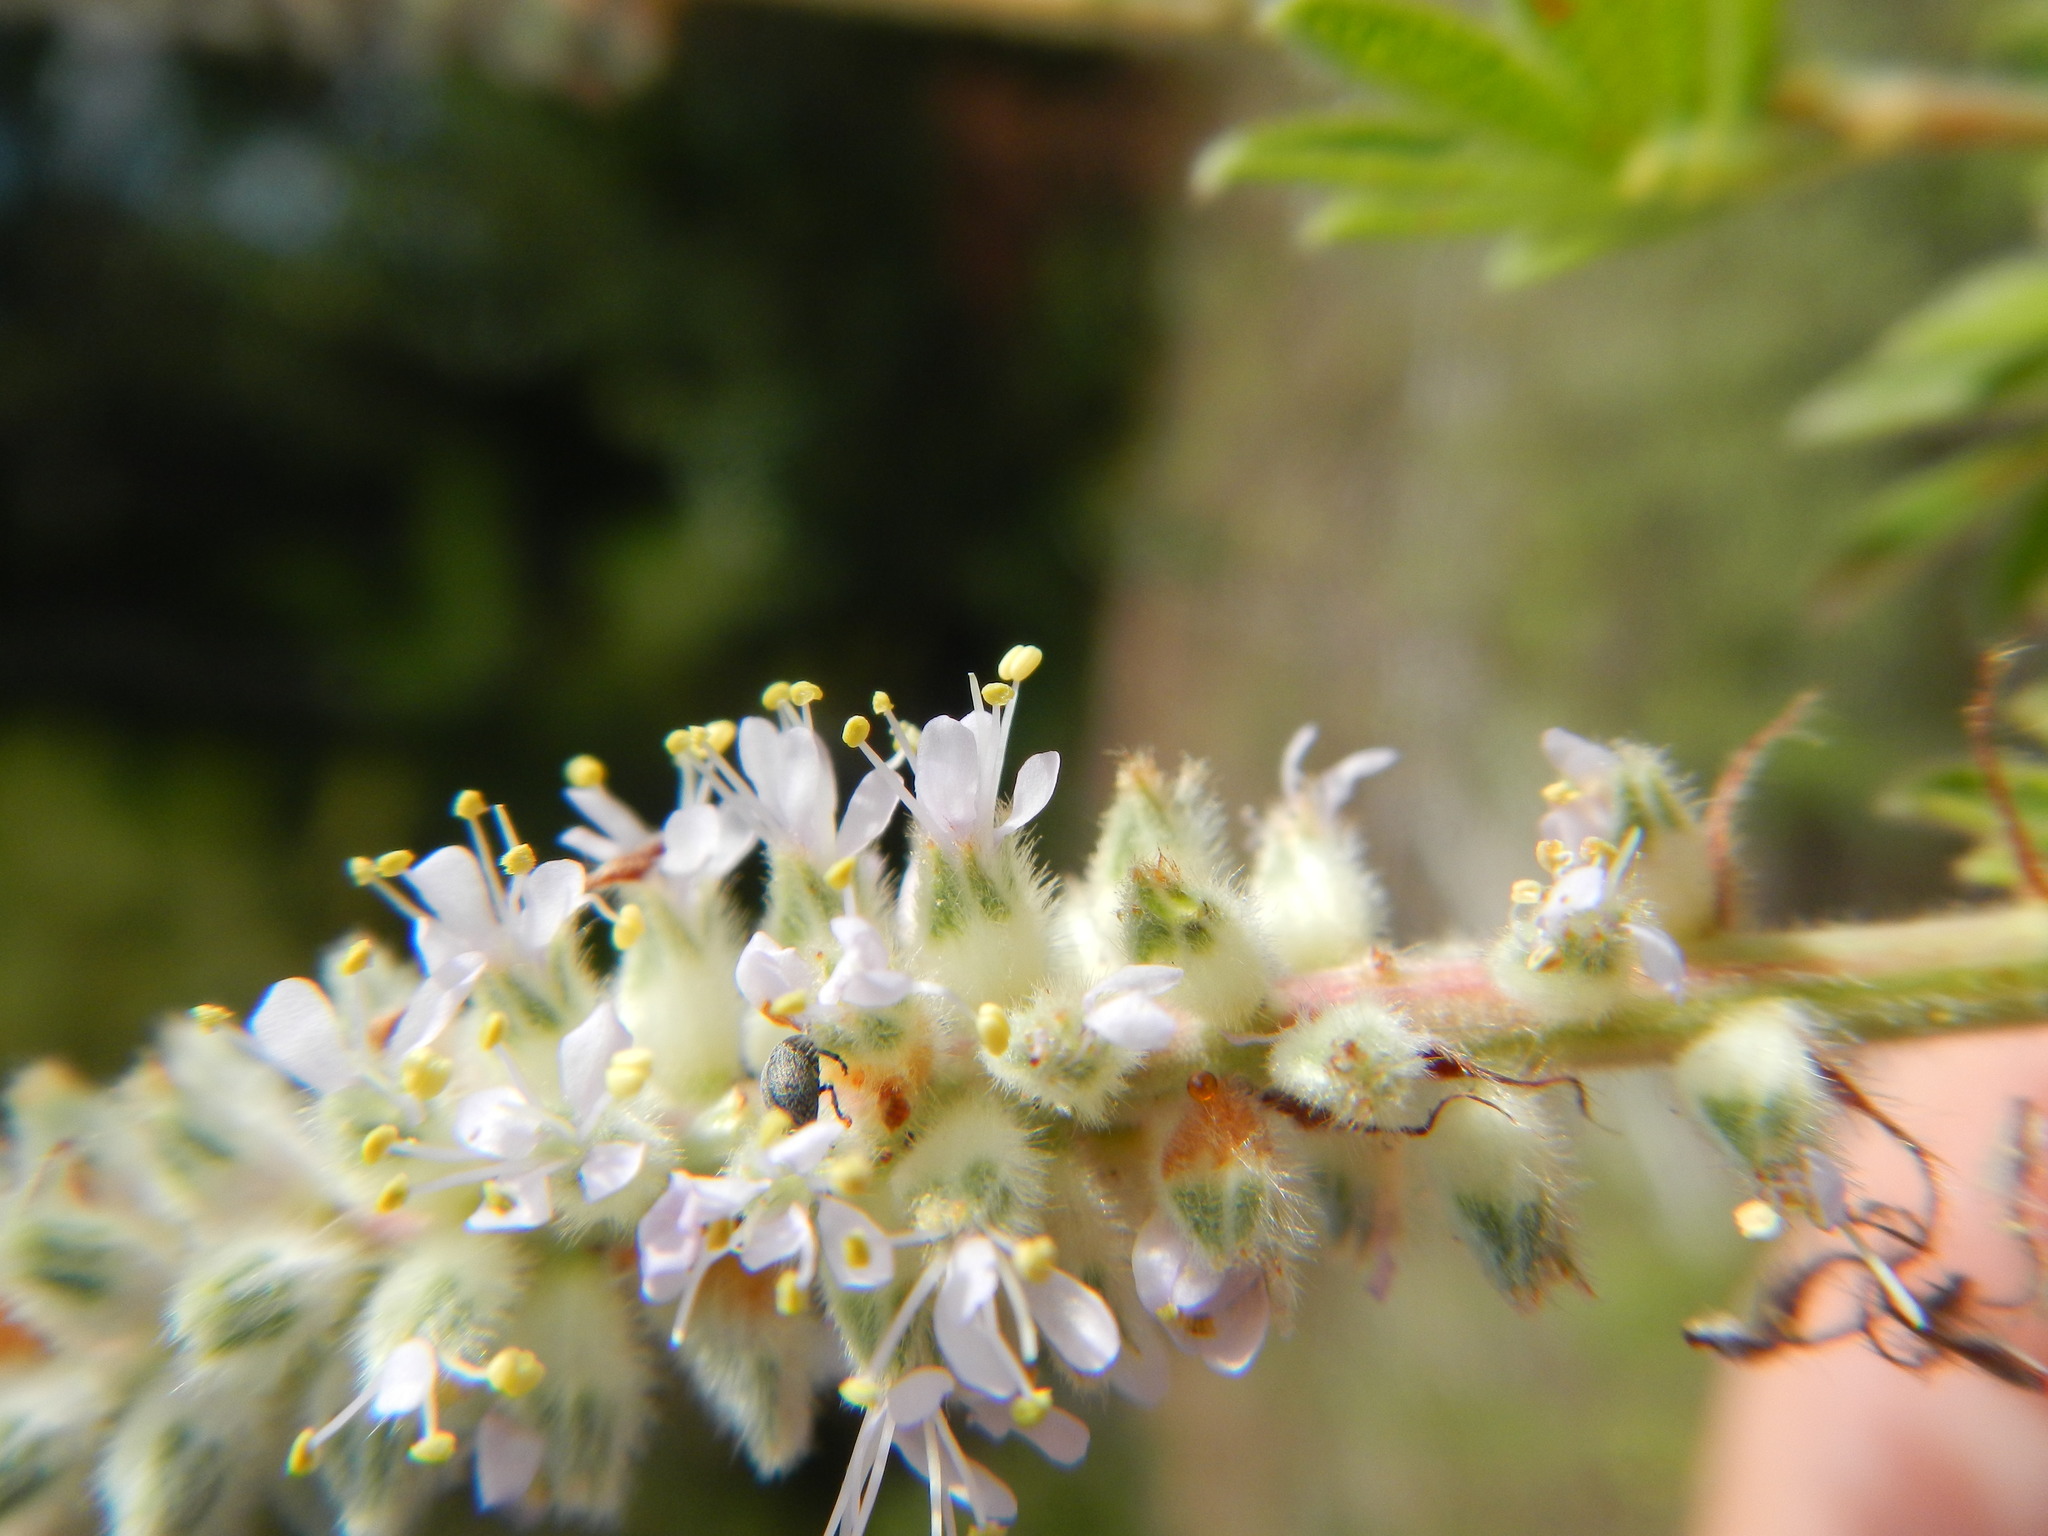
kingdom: Plantae
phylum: Tracheophyta
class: Magnoliopsida
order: Fabales
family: Fabaceae
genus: Dalea
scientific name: Dalea villosa
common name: Silky prairie-clover
